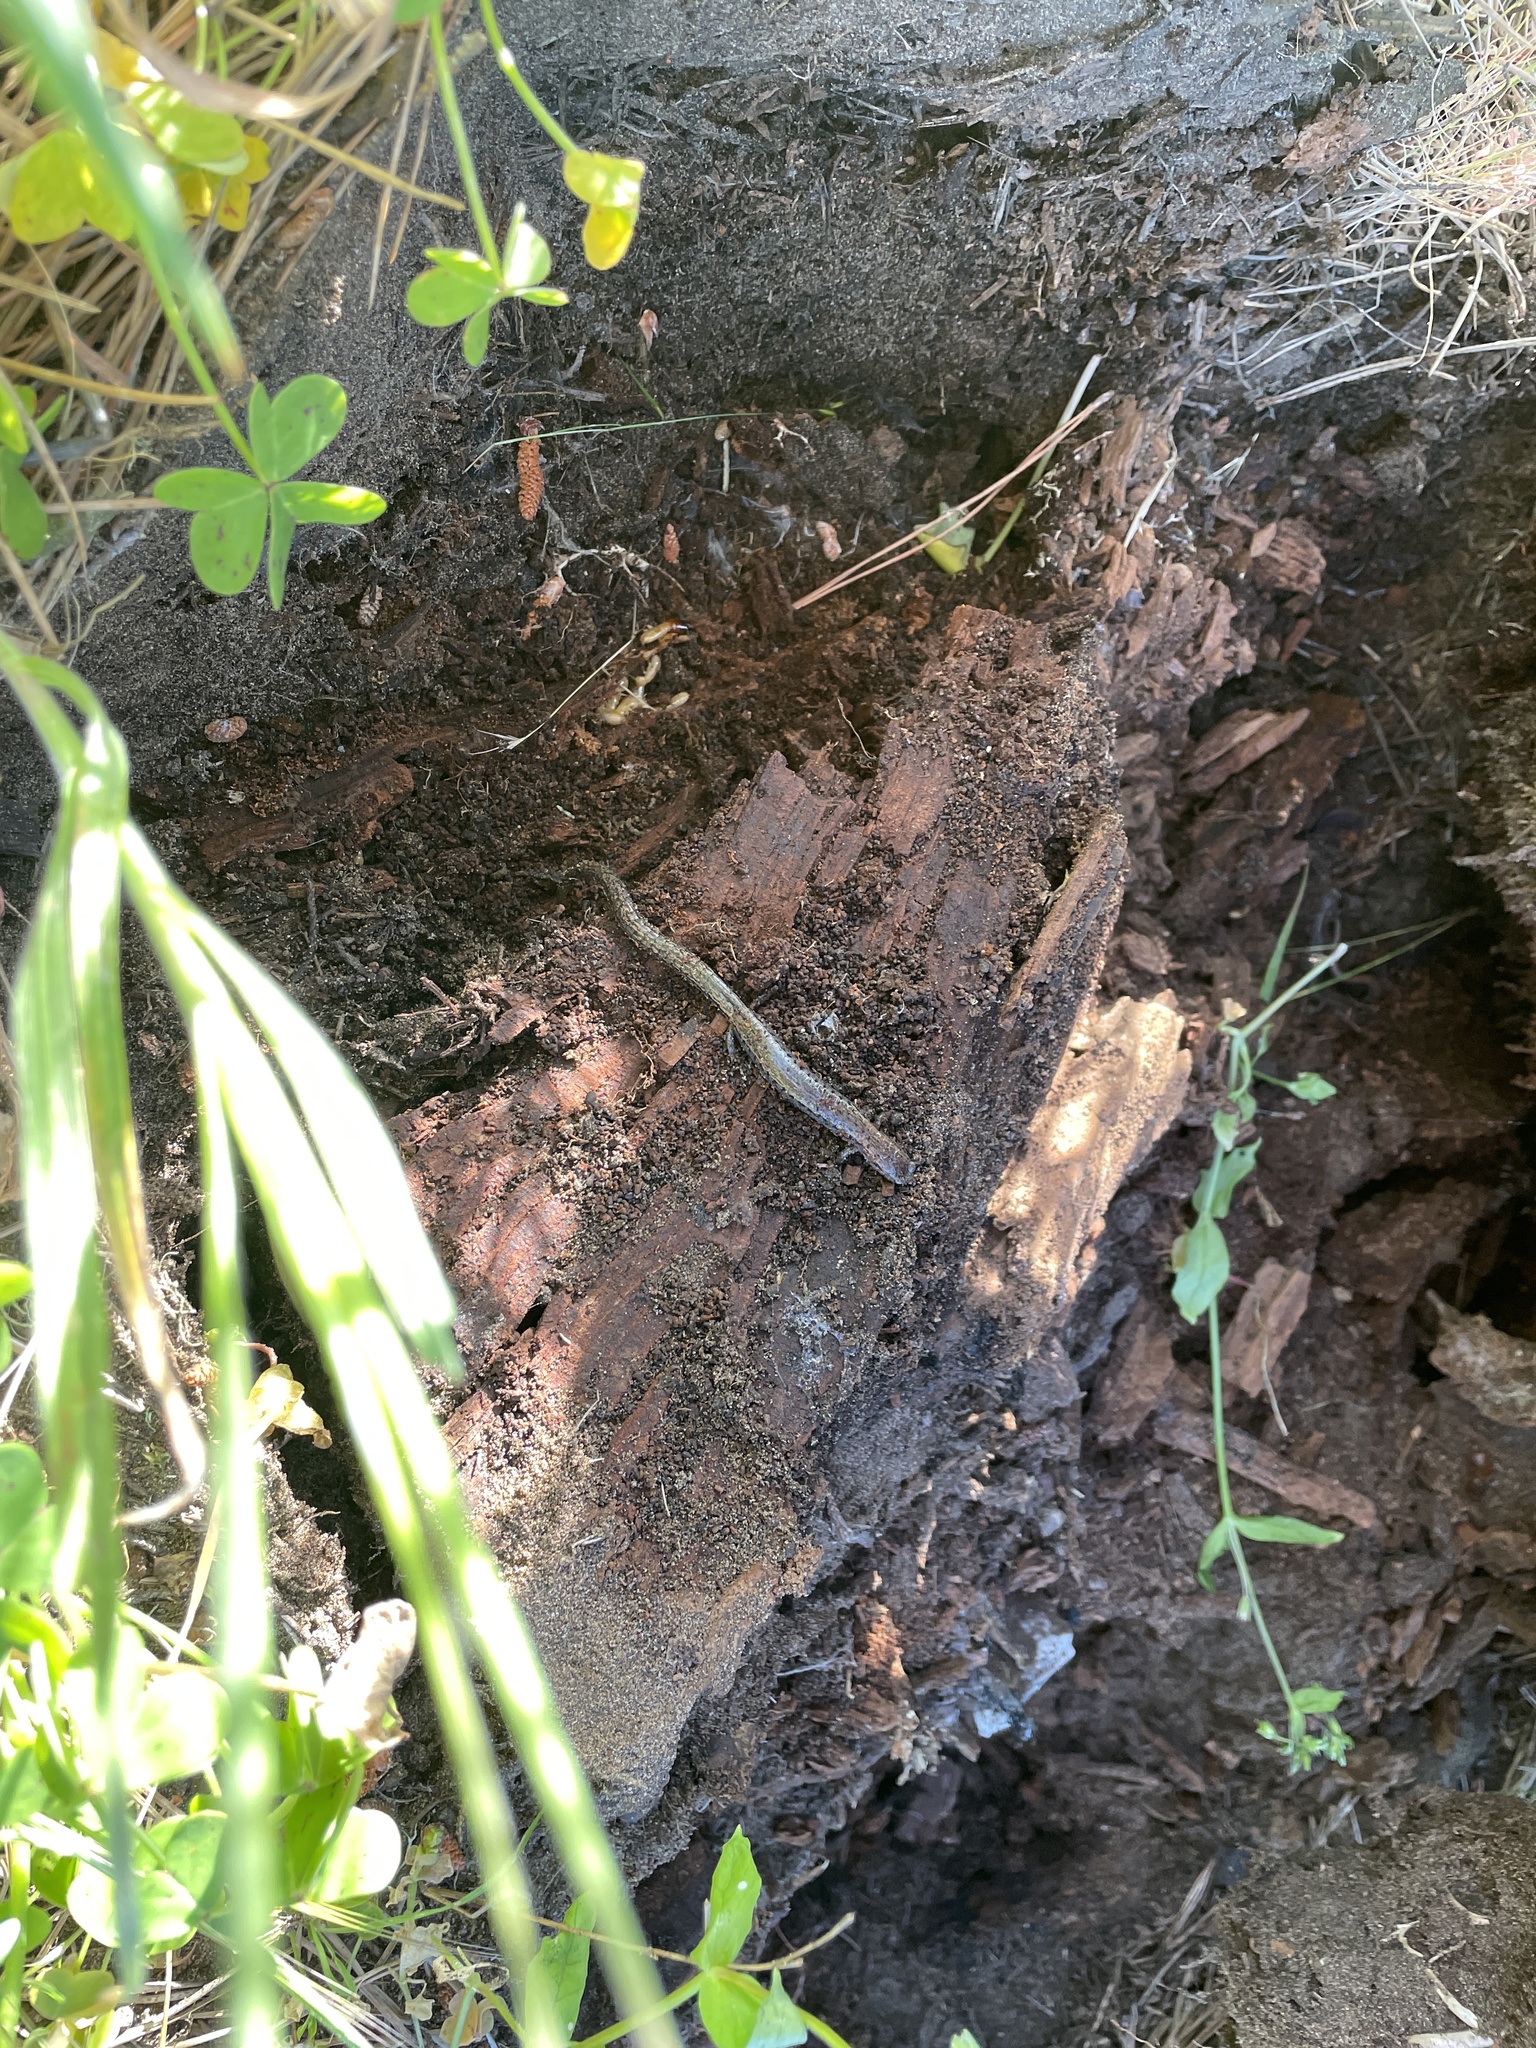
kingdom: Animalia
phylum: Chordata
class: Amphibia
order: Caudata
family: Plethodontidae
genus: Batrachoseps
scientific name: Batrachoseps attenuatus
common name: California slender salamander
